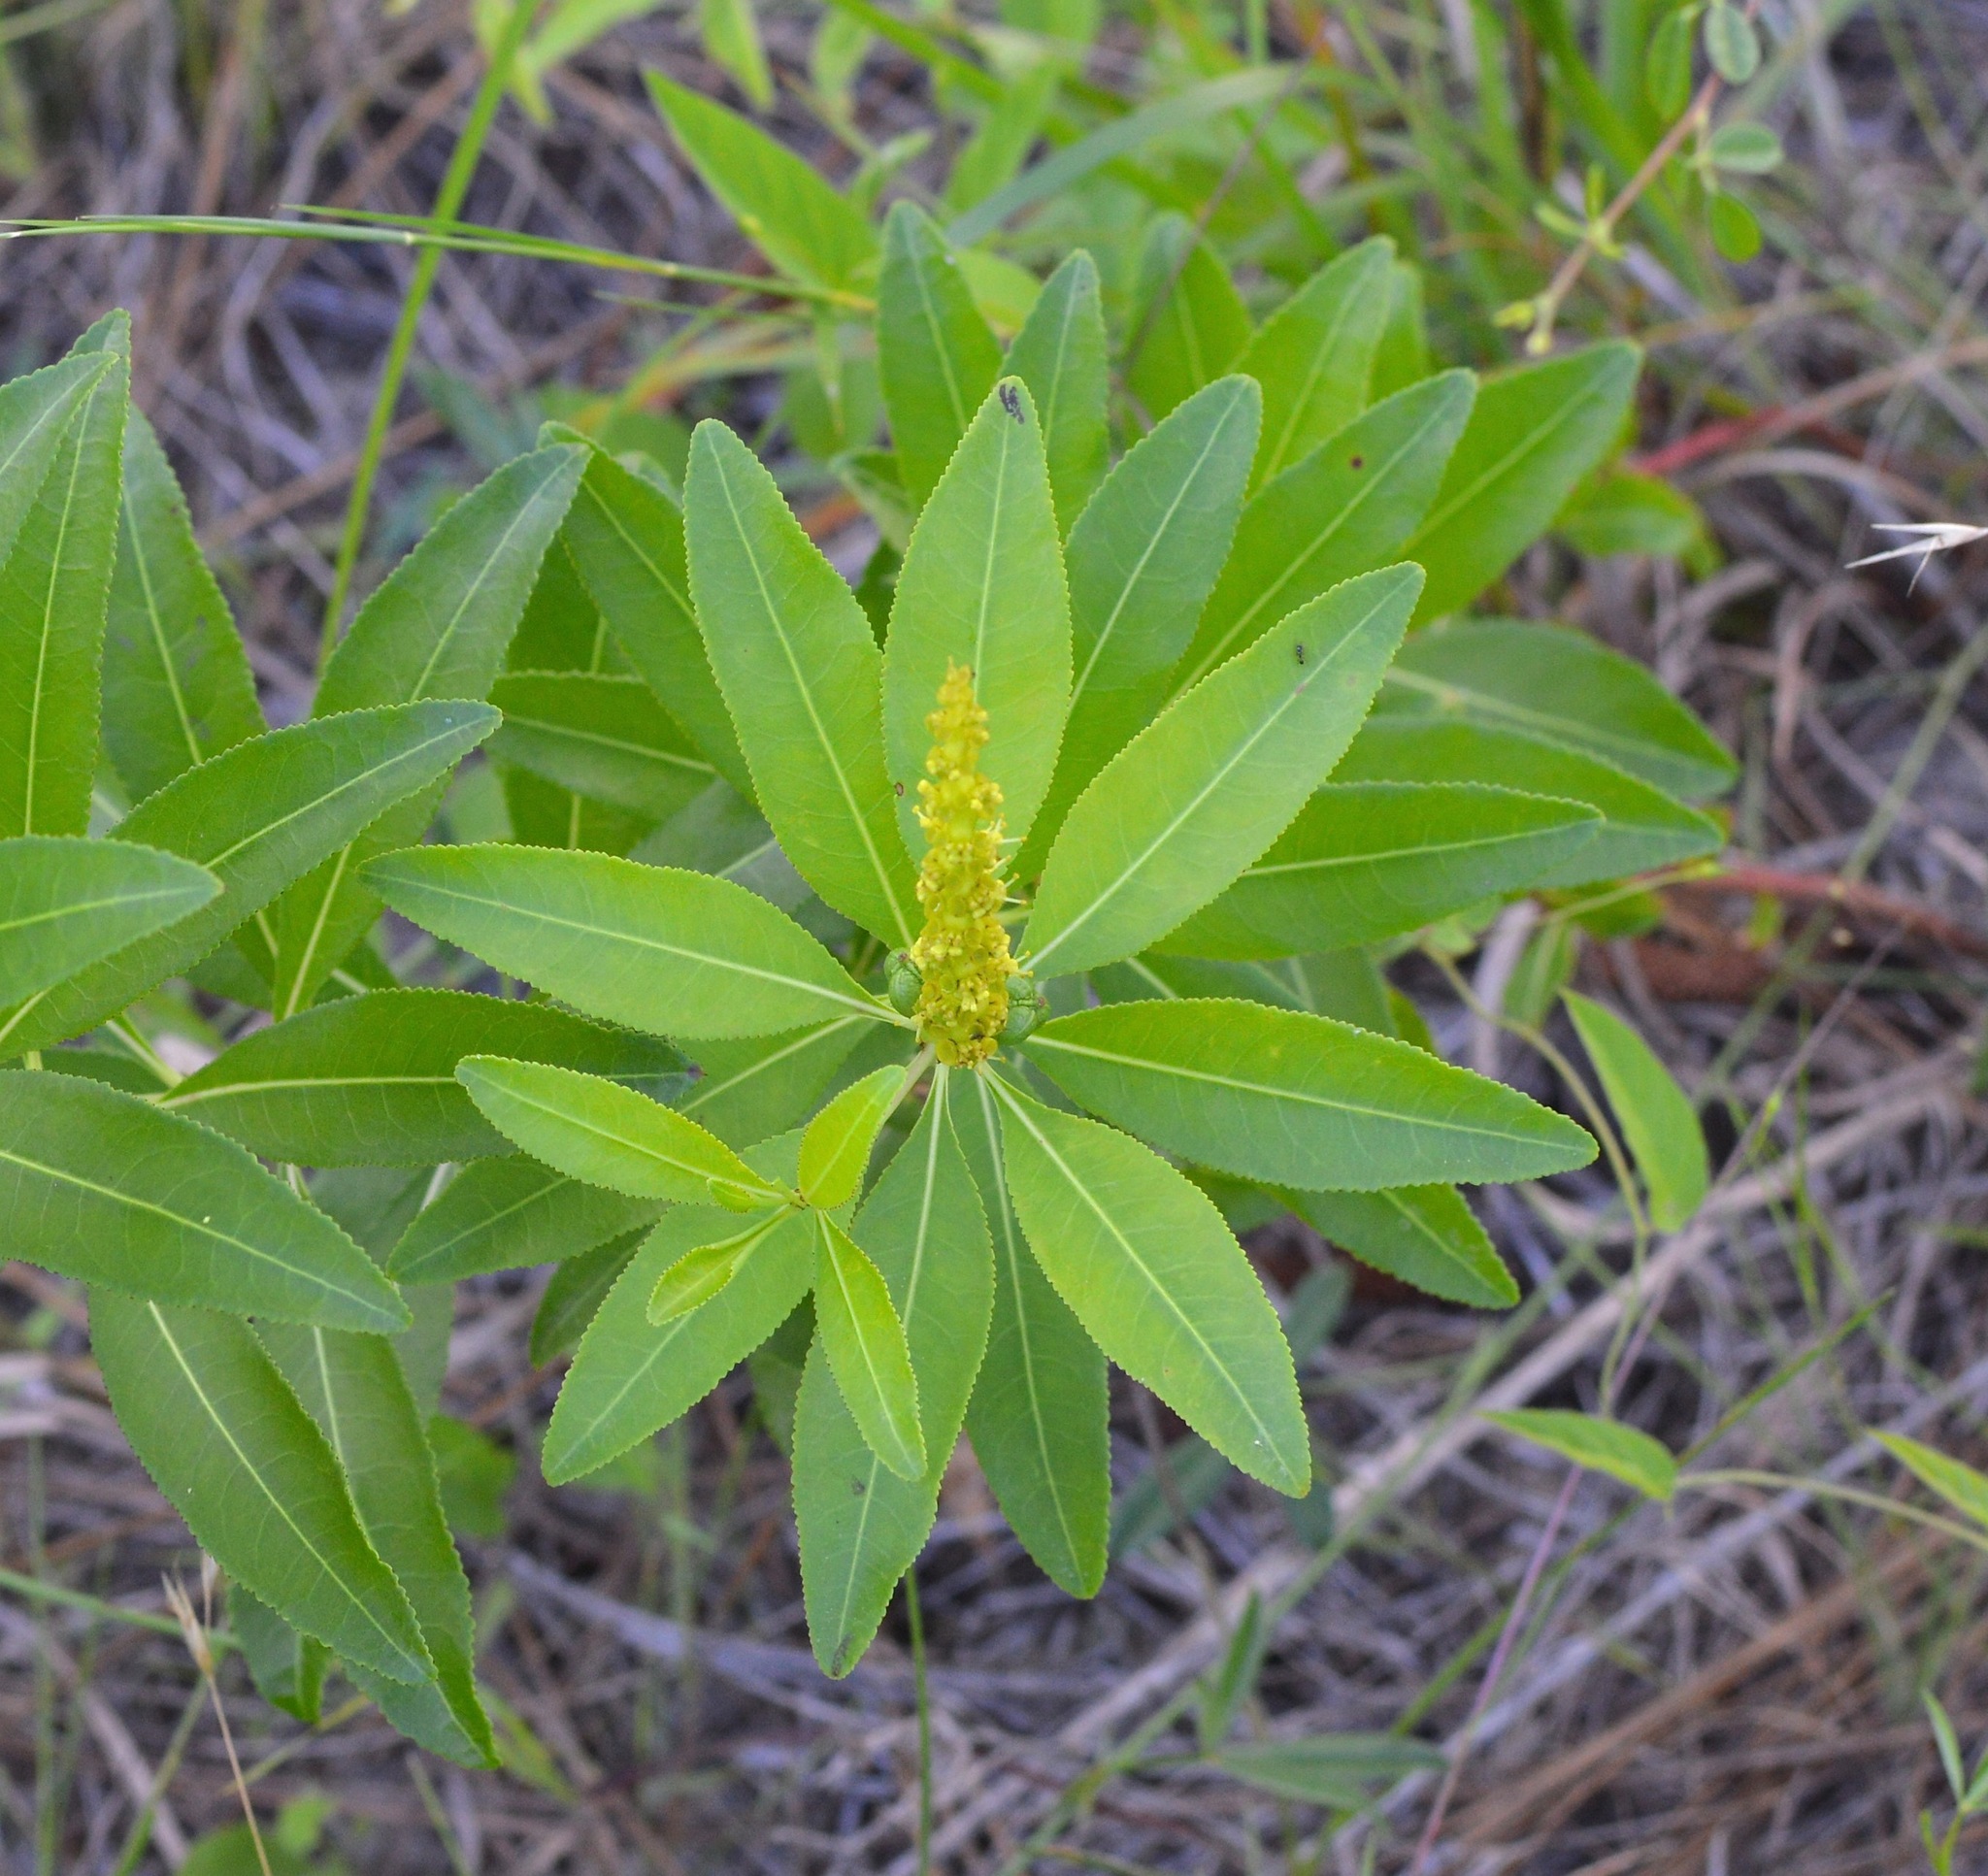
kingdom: Plantae
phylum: Tracheophyta
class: Magnoliopsida
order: Malpighiales
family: Euphorbiaceae
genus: Stillingia
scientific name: Stillingia sylvatica
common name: Queen's-delight
